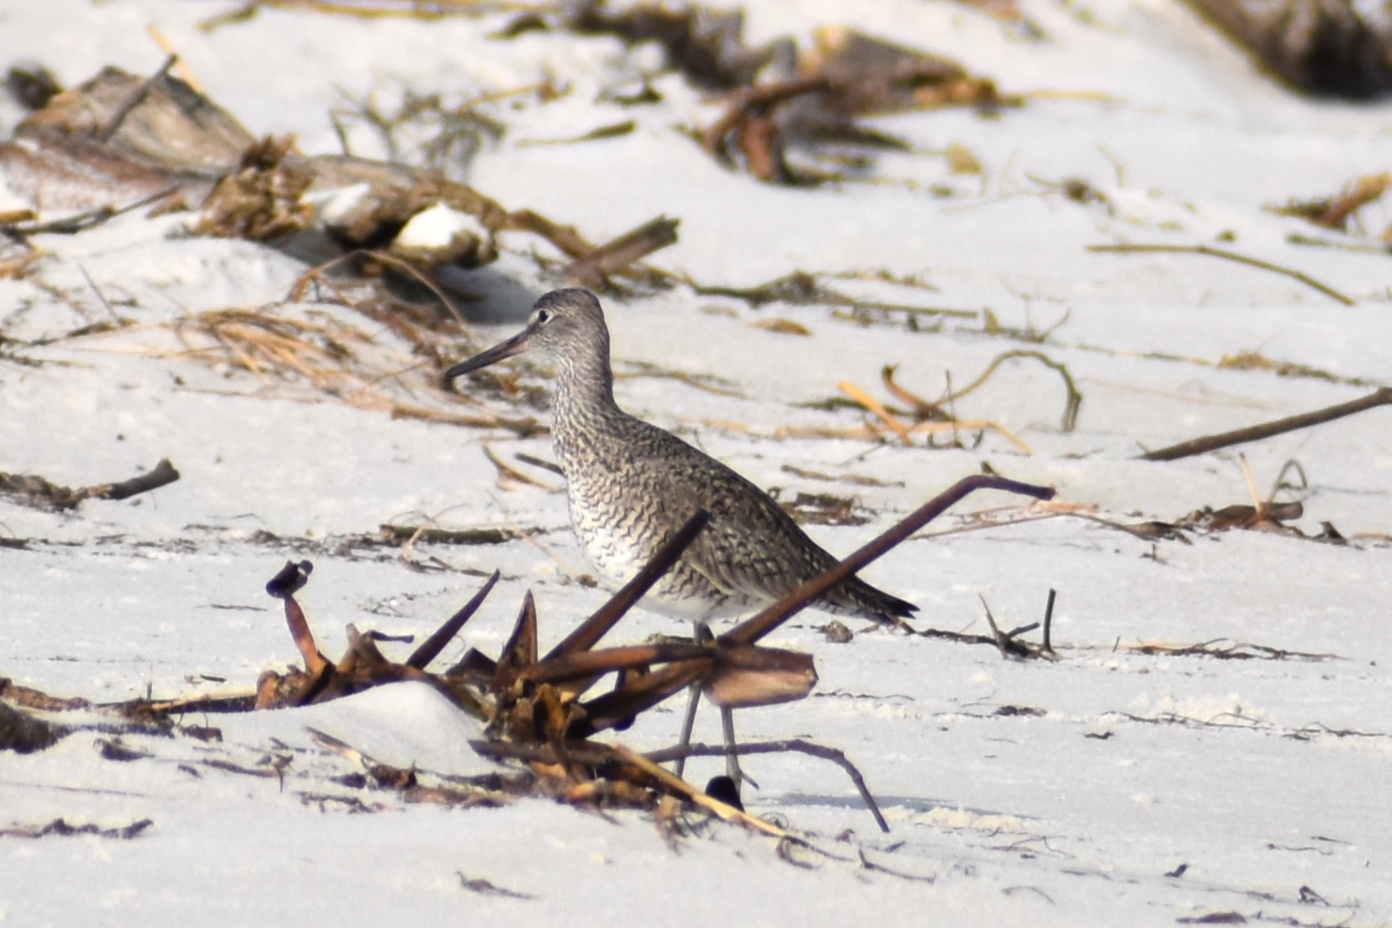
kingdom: Animalia
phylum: Chordata
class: Aves
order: Charadriiformes
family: Scolopacidae
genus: Tringa
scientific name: Tringa semipalmata
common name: Willet
